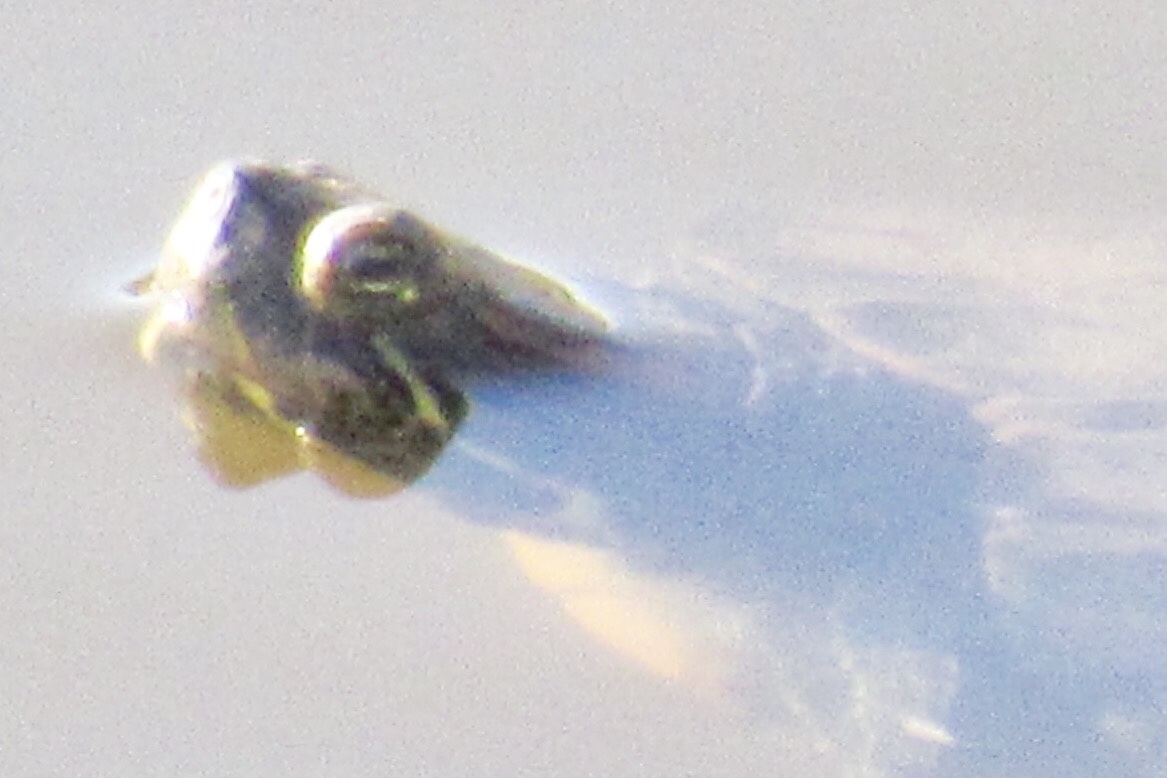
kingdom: Animalia
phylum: Chordata
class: Testudines
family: Emydidae
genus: Trachemys
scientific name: Trachemys scripta
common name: Slider
